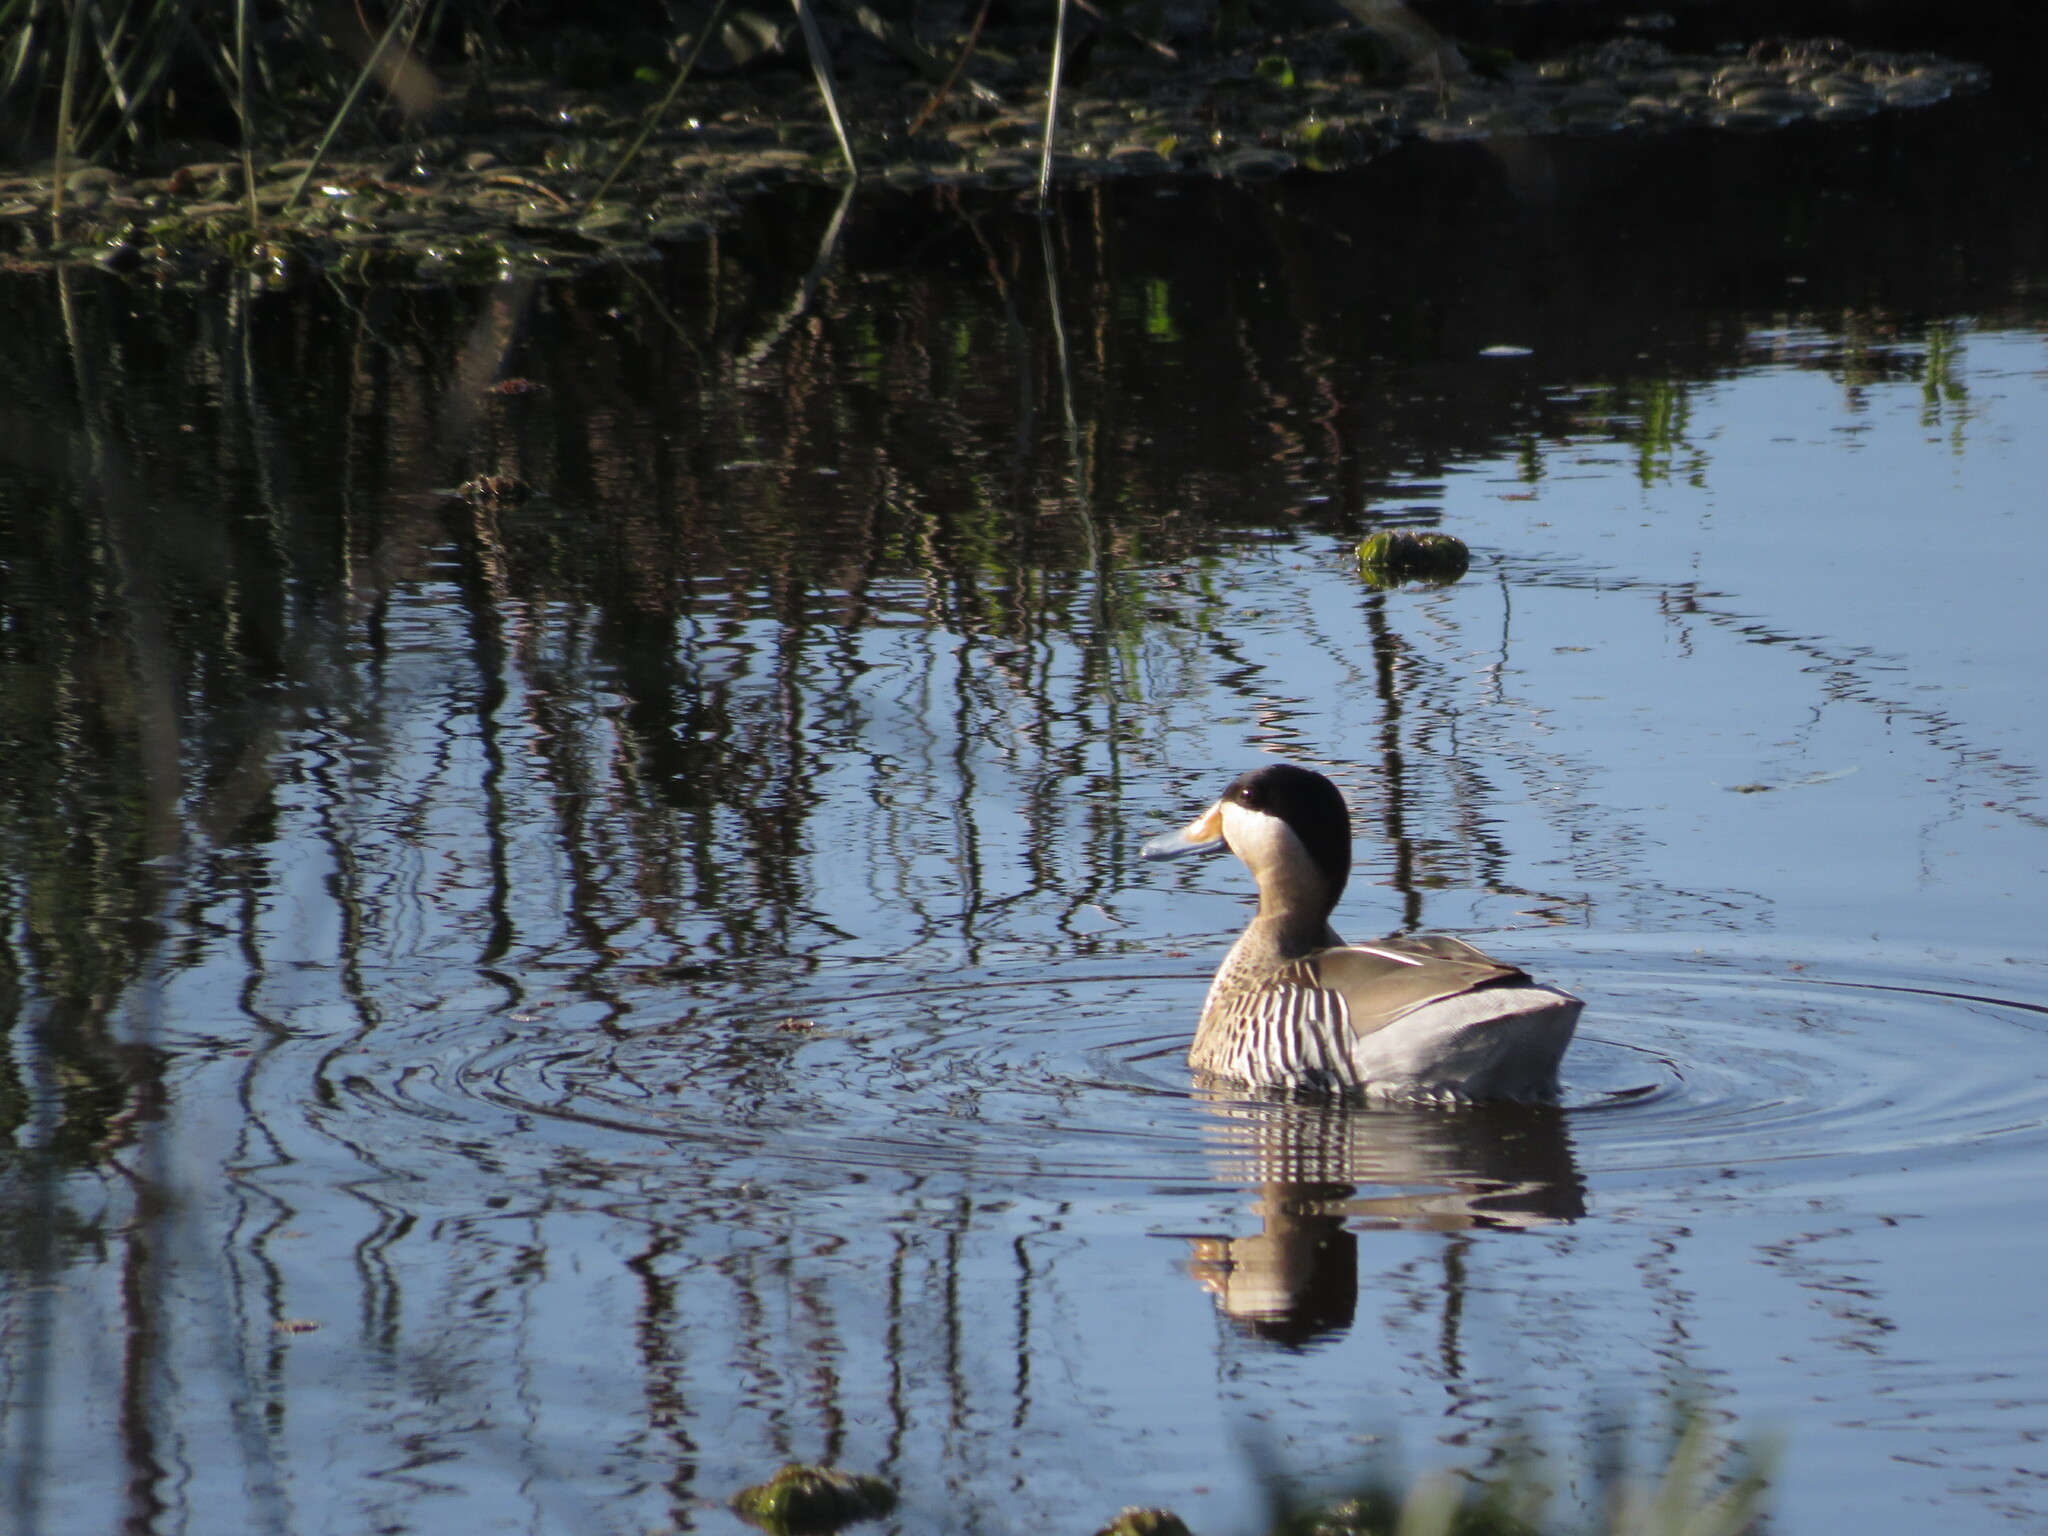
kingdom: Animalia
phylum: Chordata
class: Aves
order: Anseriformes
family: Anatidae
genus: Spatula
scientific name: Spatula versicolor
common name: Silver teal
